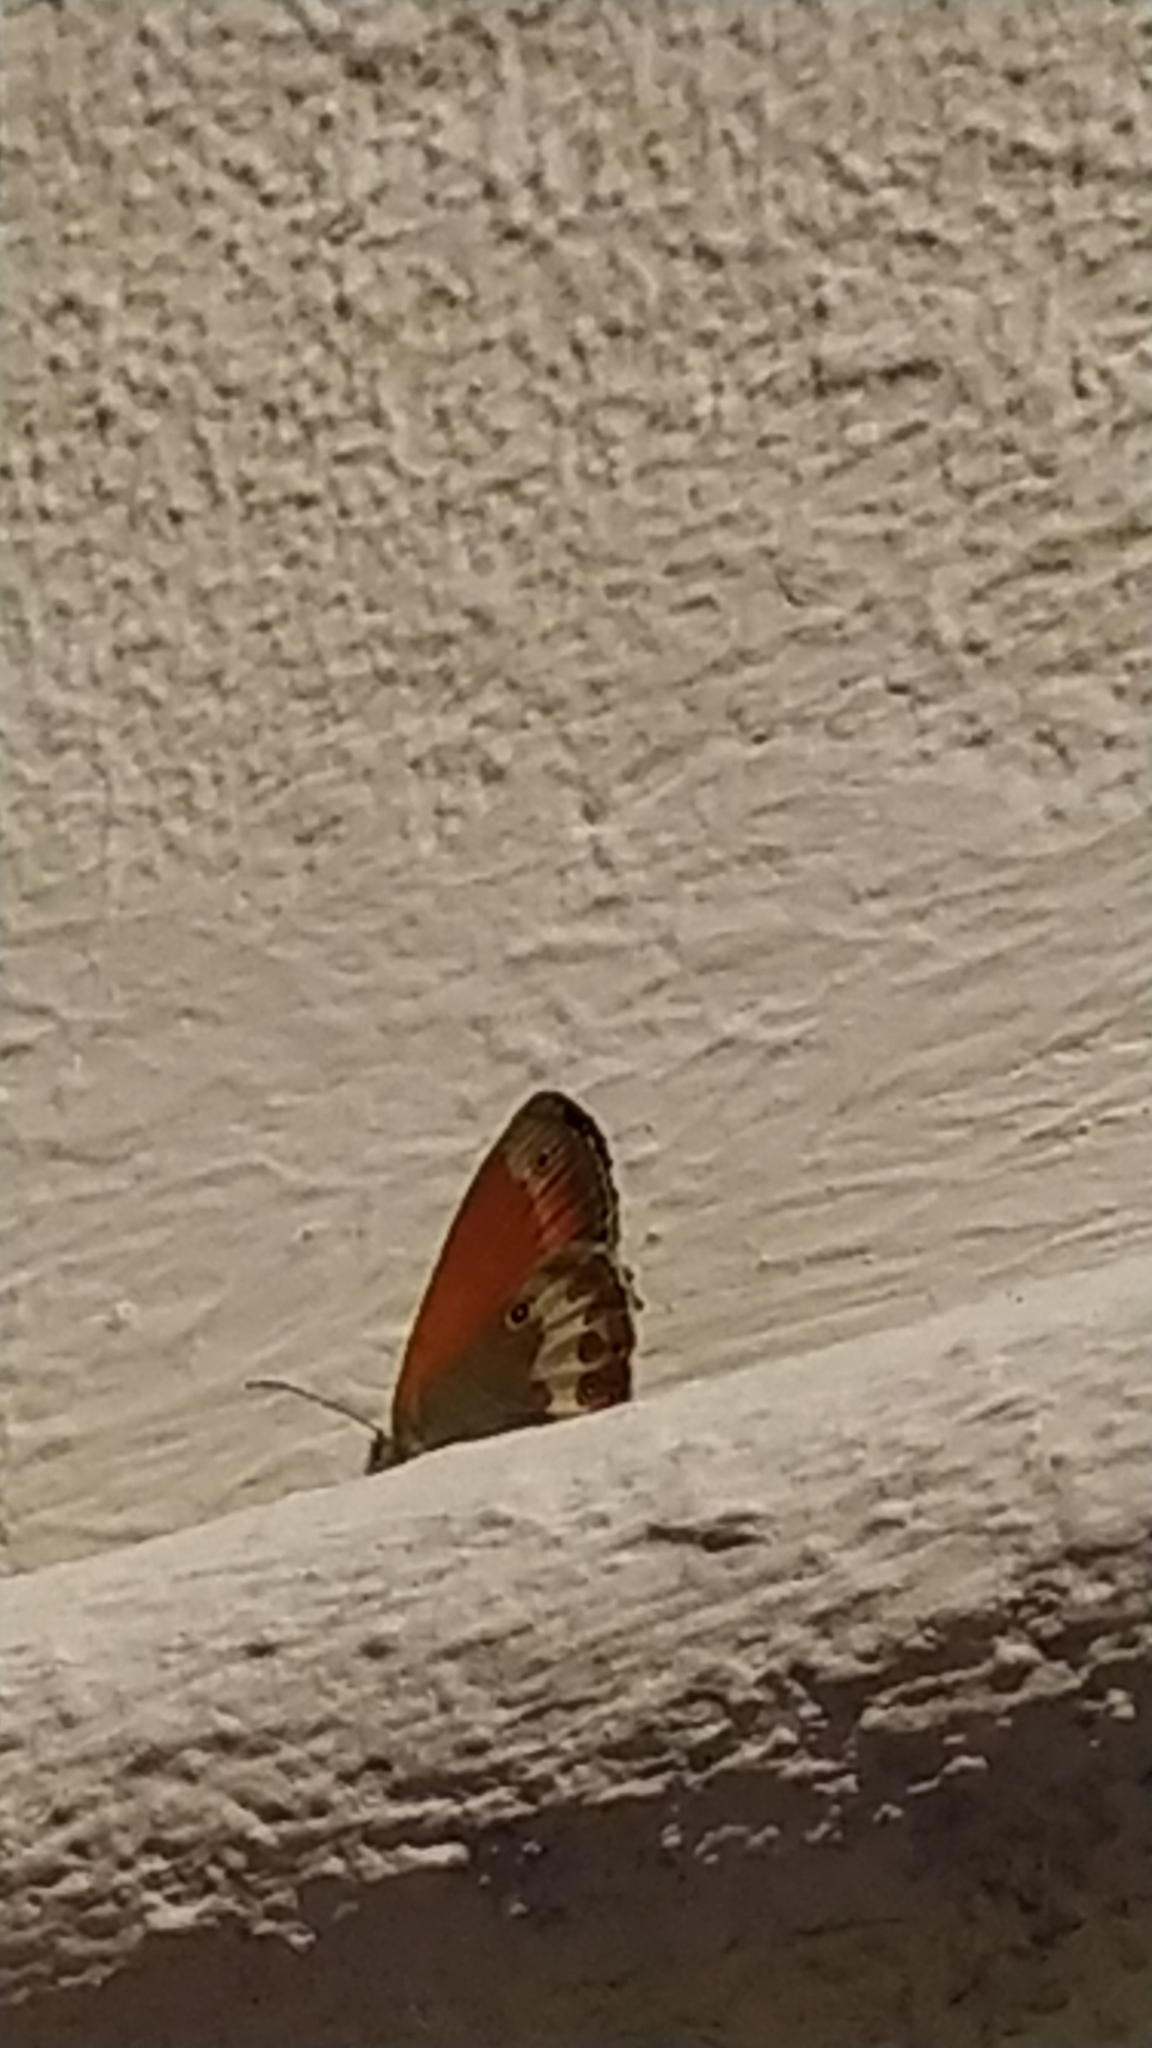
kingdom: Animalia
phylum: Arthropoda
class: Insecta
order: Lepidoptera
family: Nymphalidae
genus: Coenonympha
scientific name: Coenonympha arcania
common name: Pearly heath
